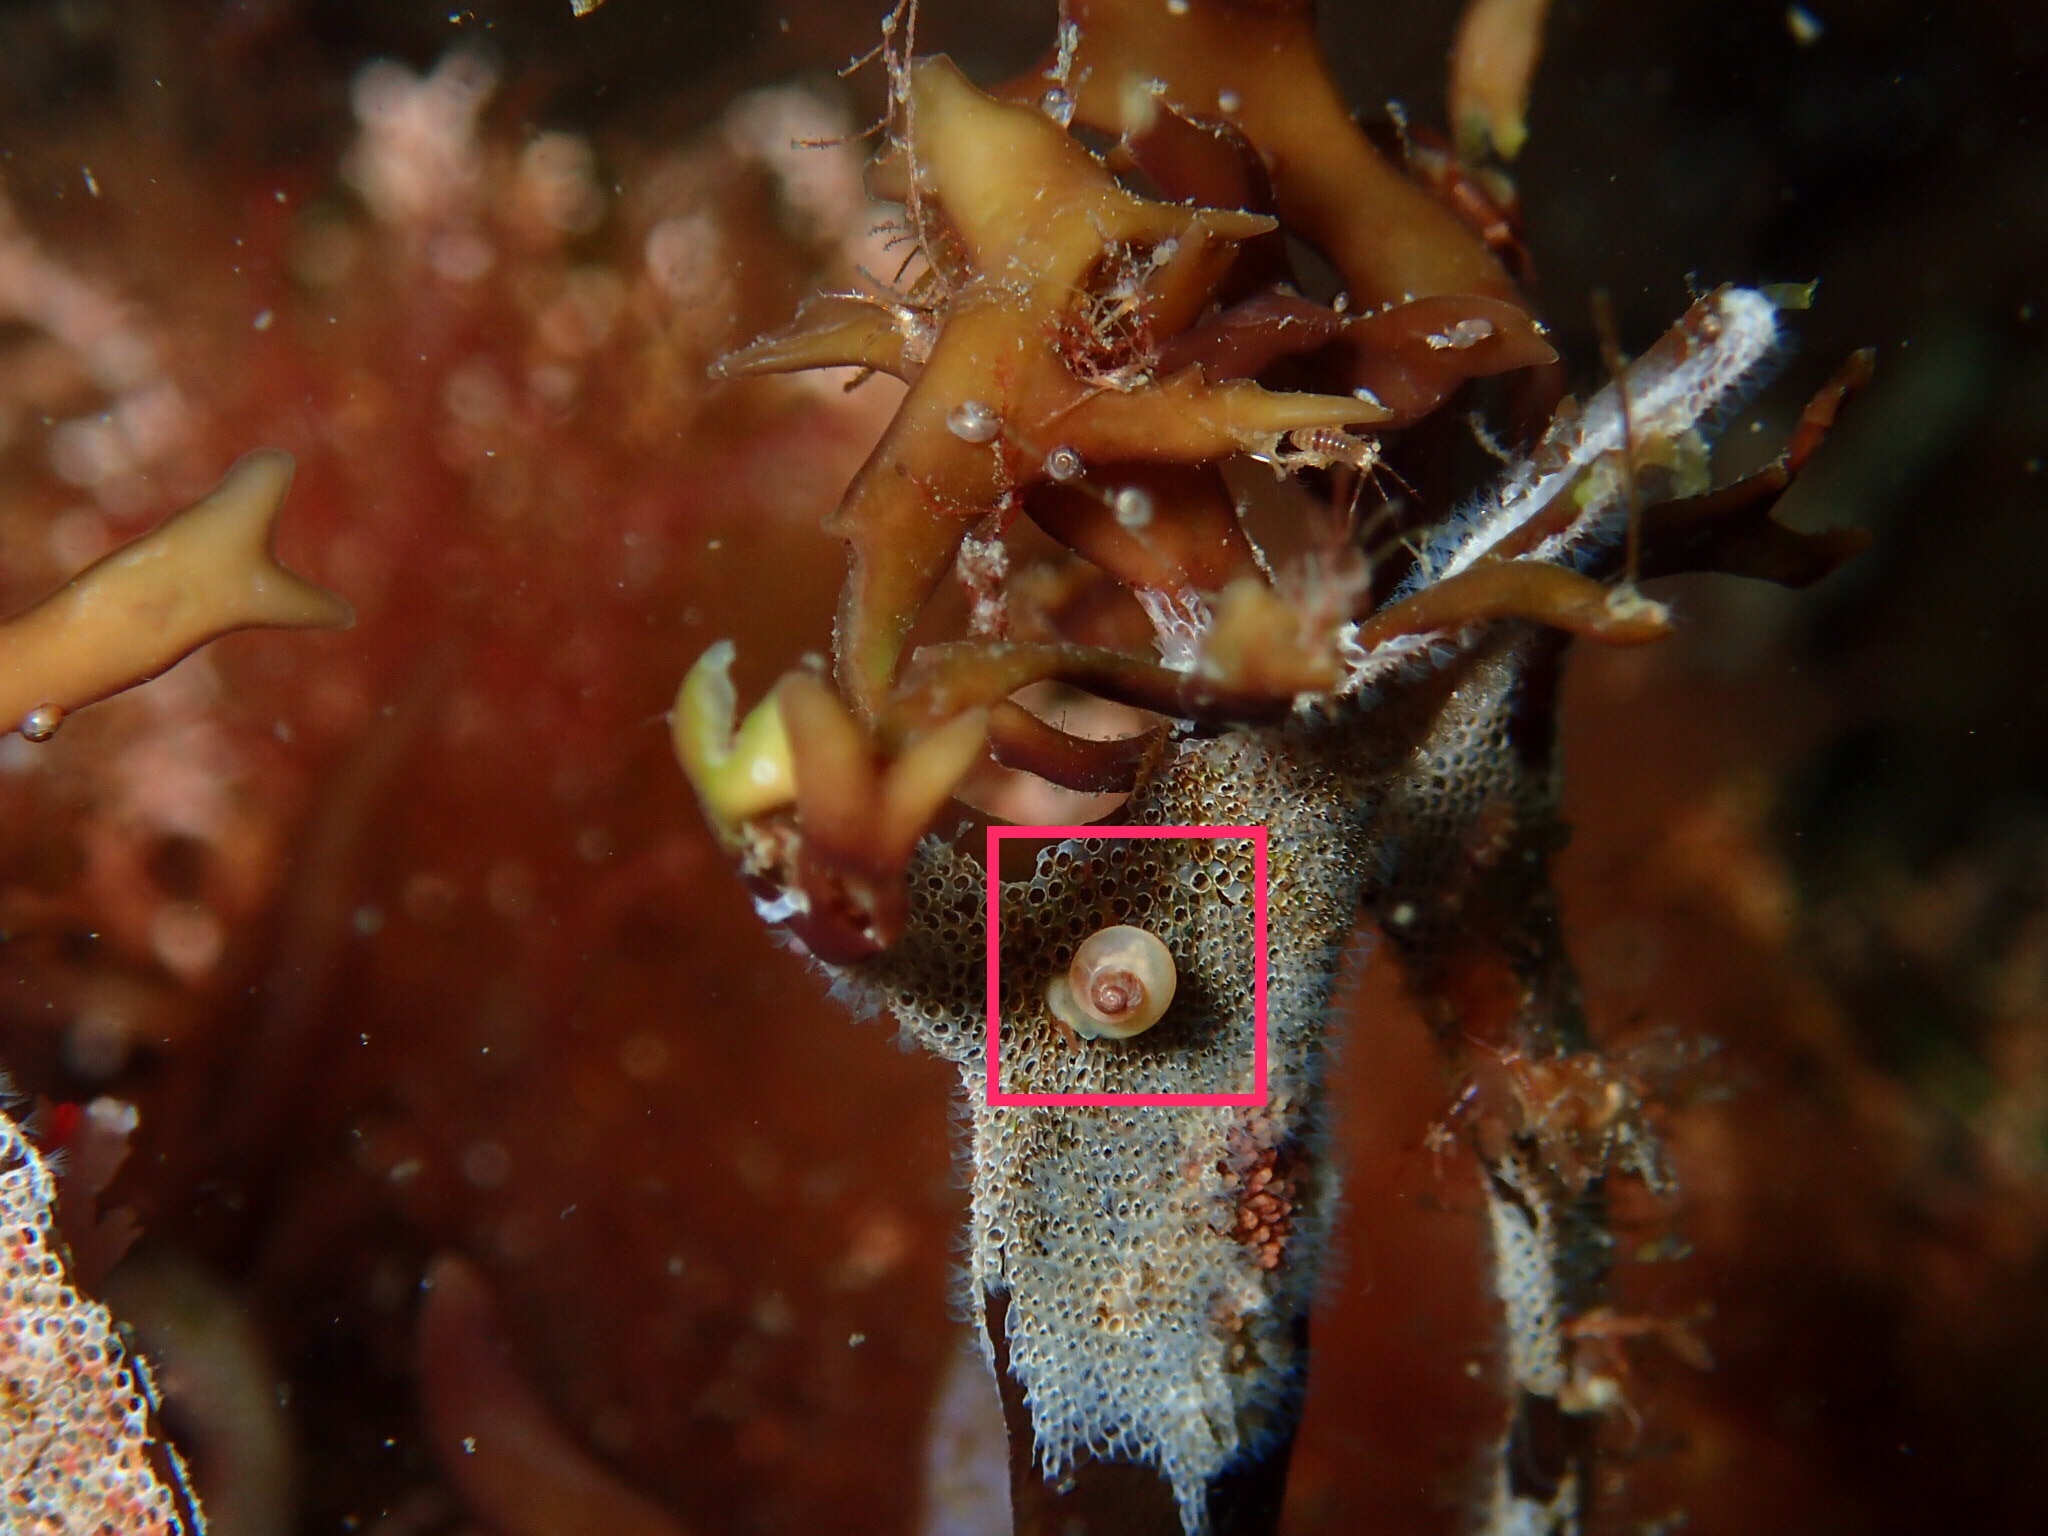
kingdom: Animalia
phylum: Mollusca
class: Gastropoda
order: Littorinimorpha
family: Littorinidae
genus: Lacuna
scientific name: Lacuna vincta
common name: Banded chink shell
